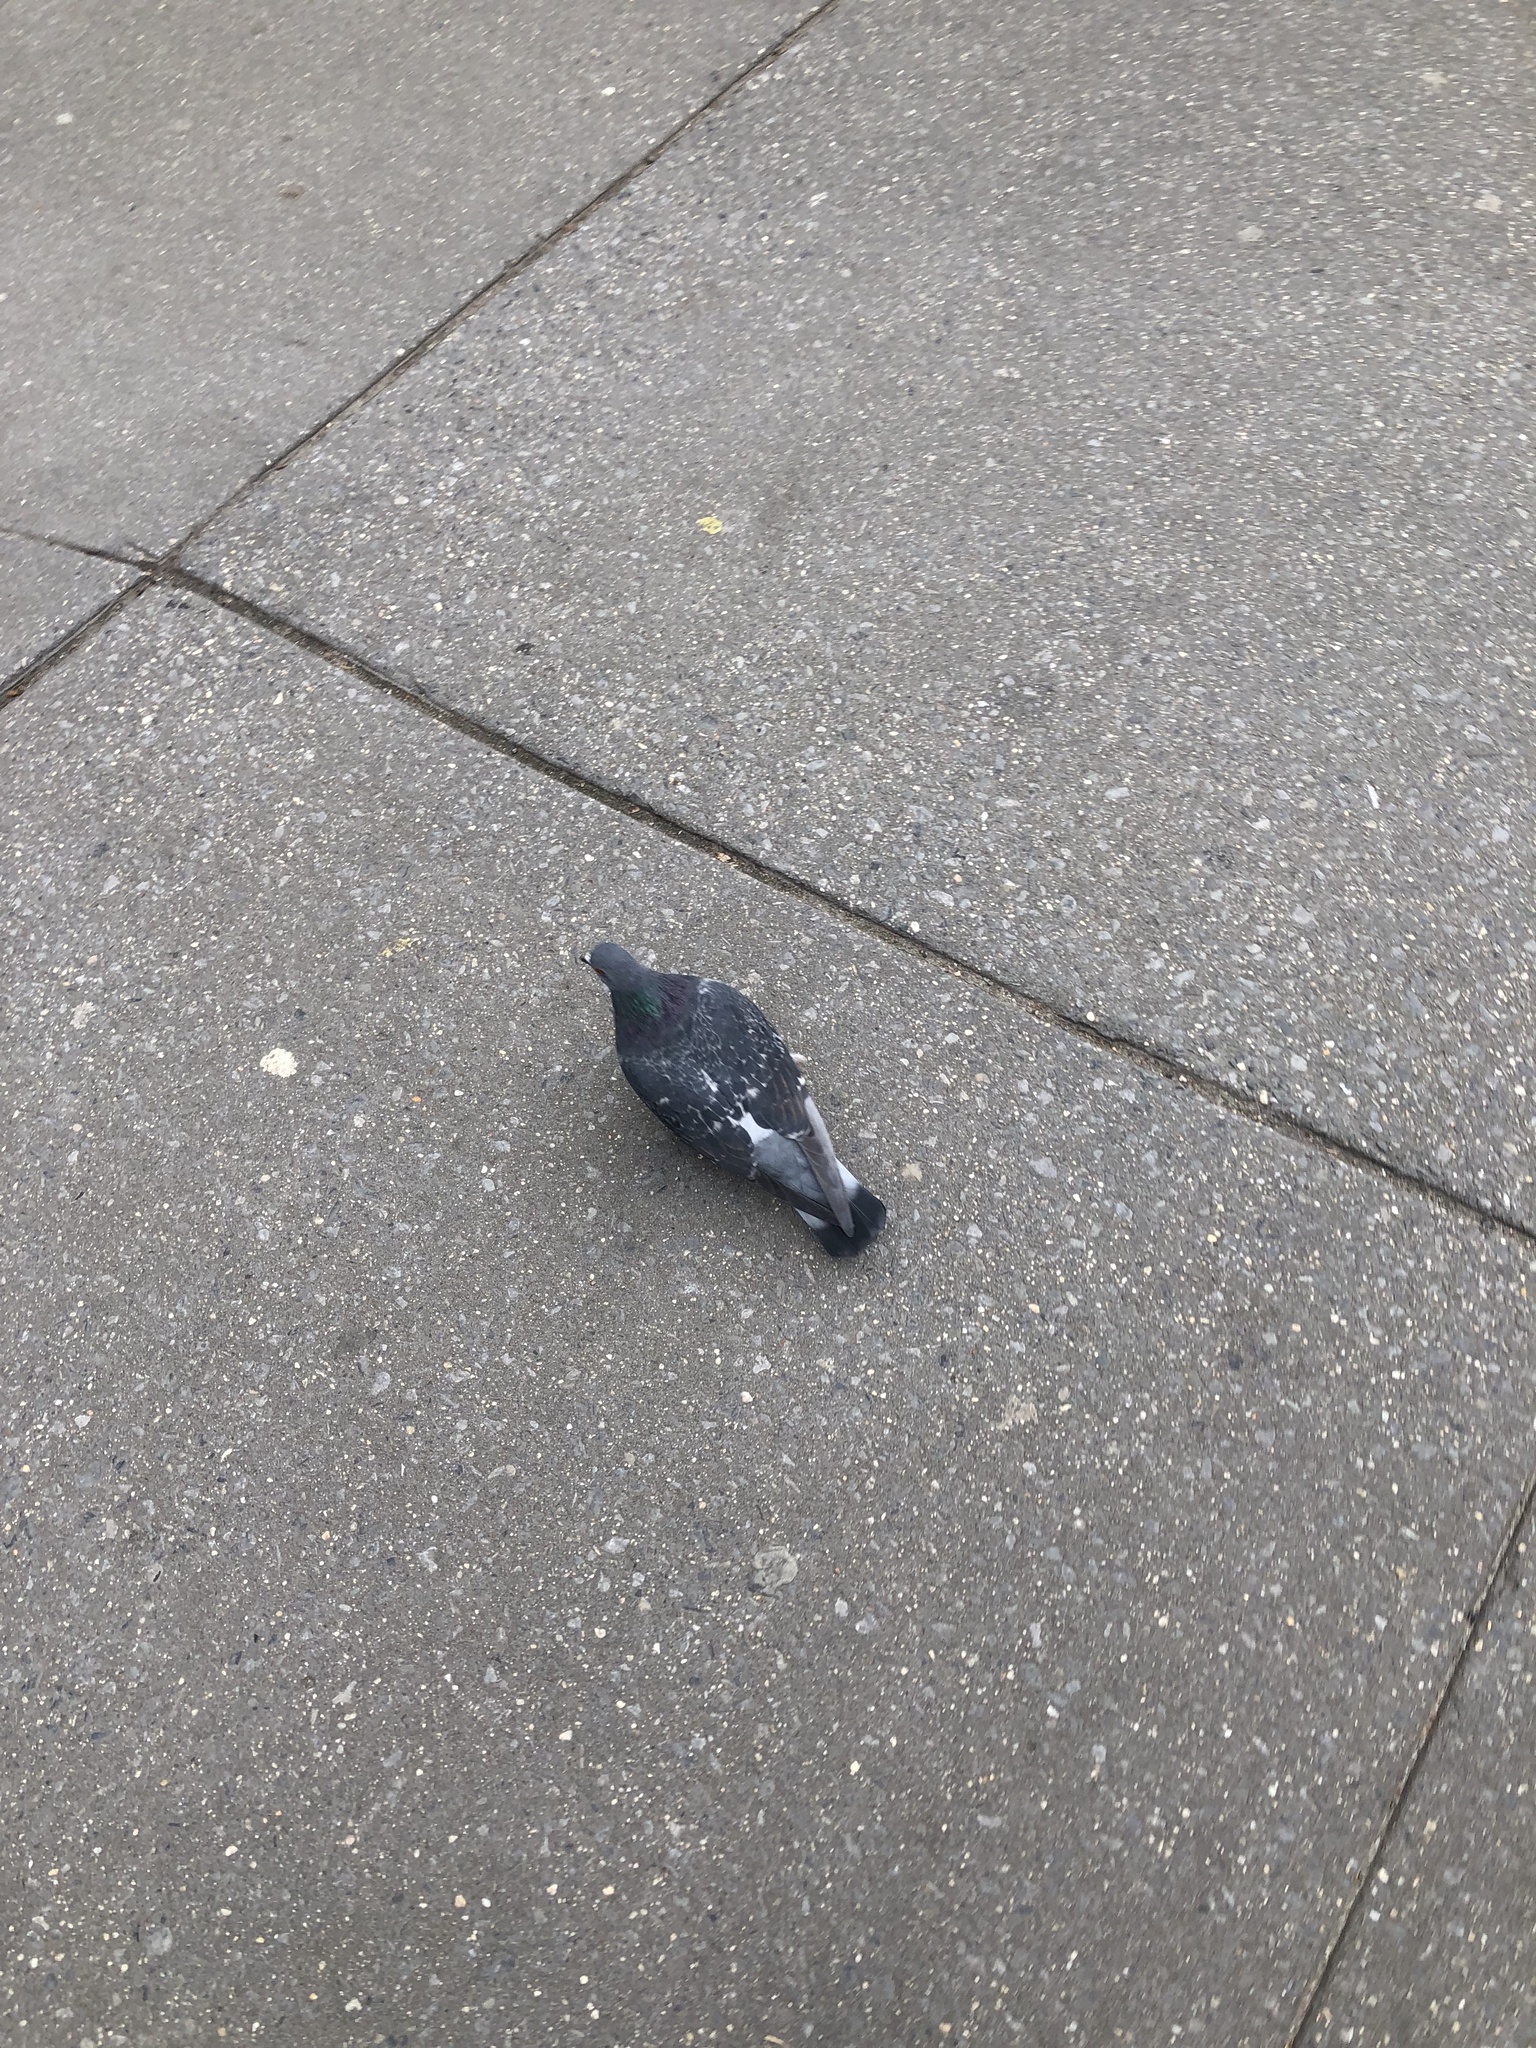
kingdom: Animalia
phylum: Chordata
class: Aves
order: Columbiformes
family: Columbidae
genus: Columba
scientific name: Columba livia
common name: Rock pigeon
